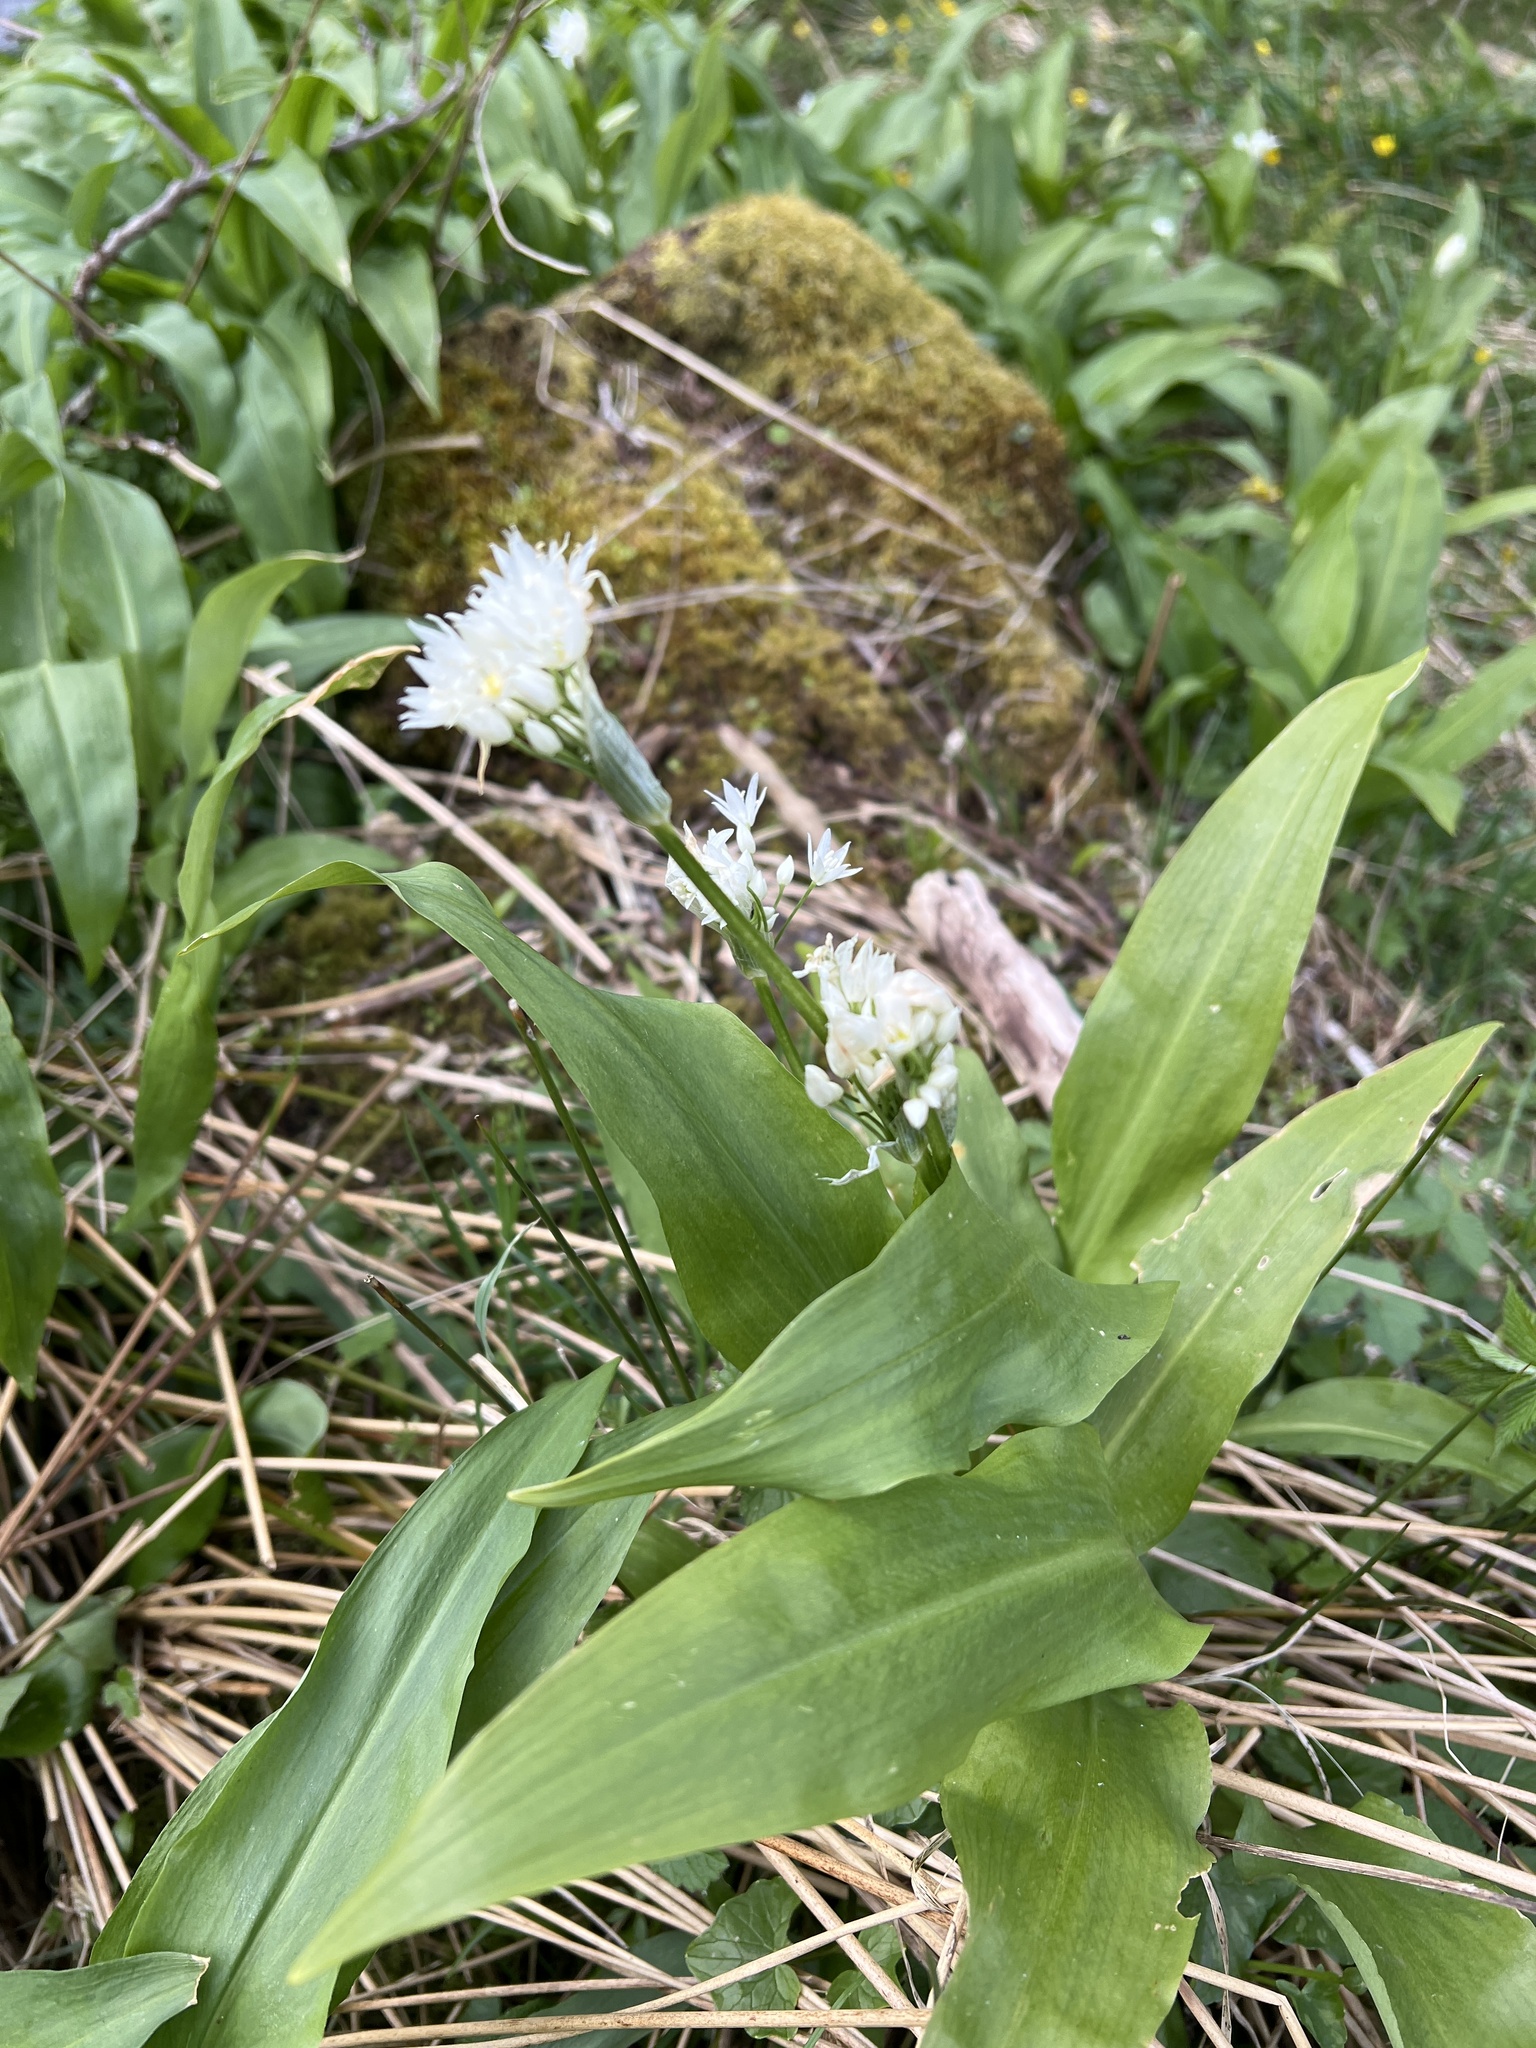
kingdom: Plantae
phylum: Tracheophyta
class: Liliopsida
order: Asparagales
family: Amaryllidaceae
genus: Allium
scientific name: Allium ursinum
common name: Ramsons
